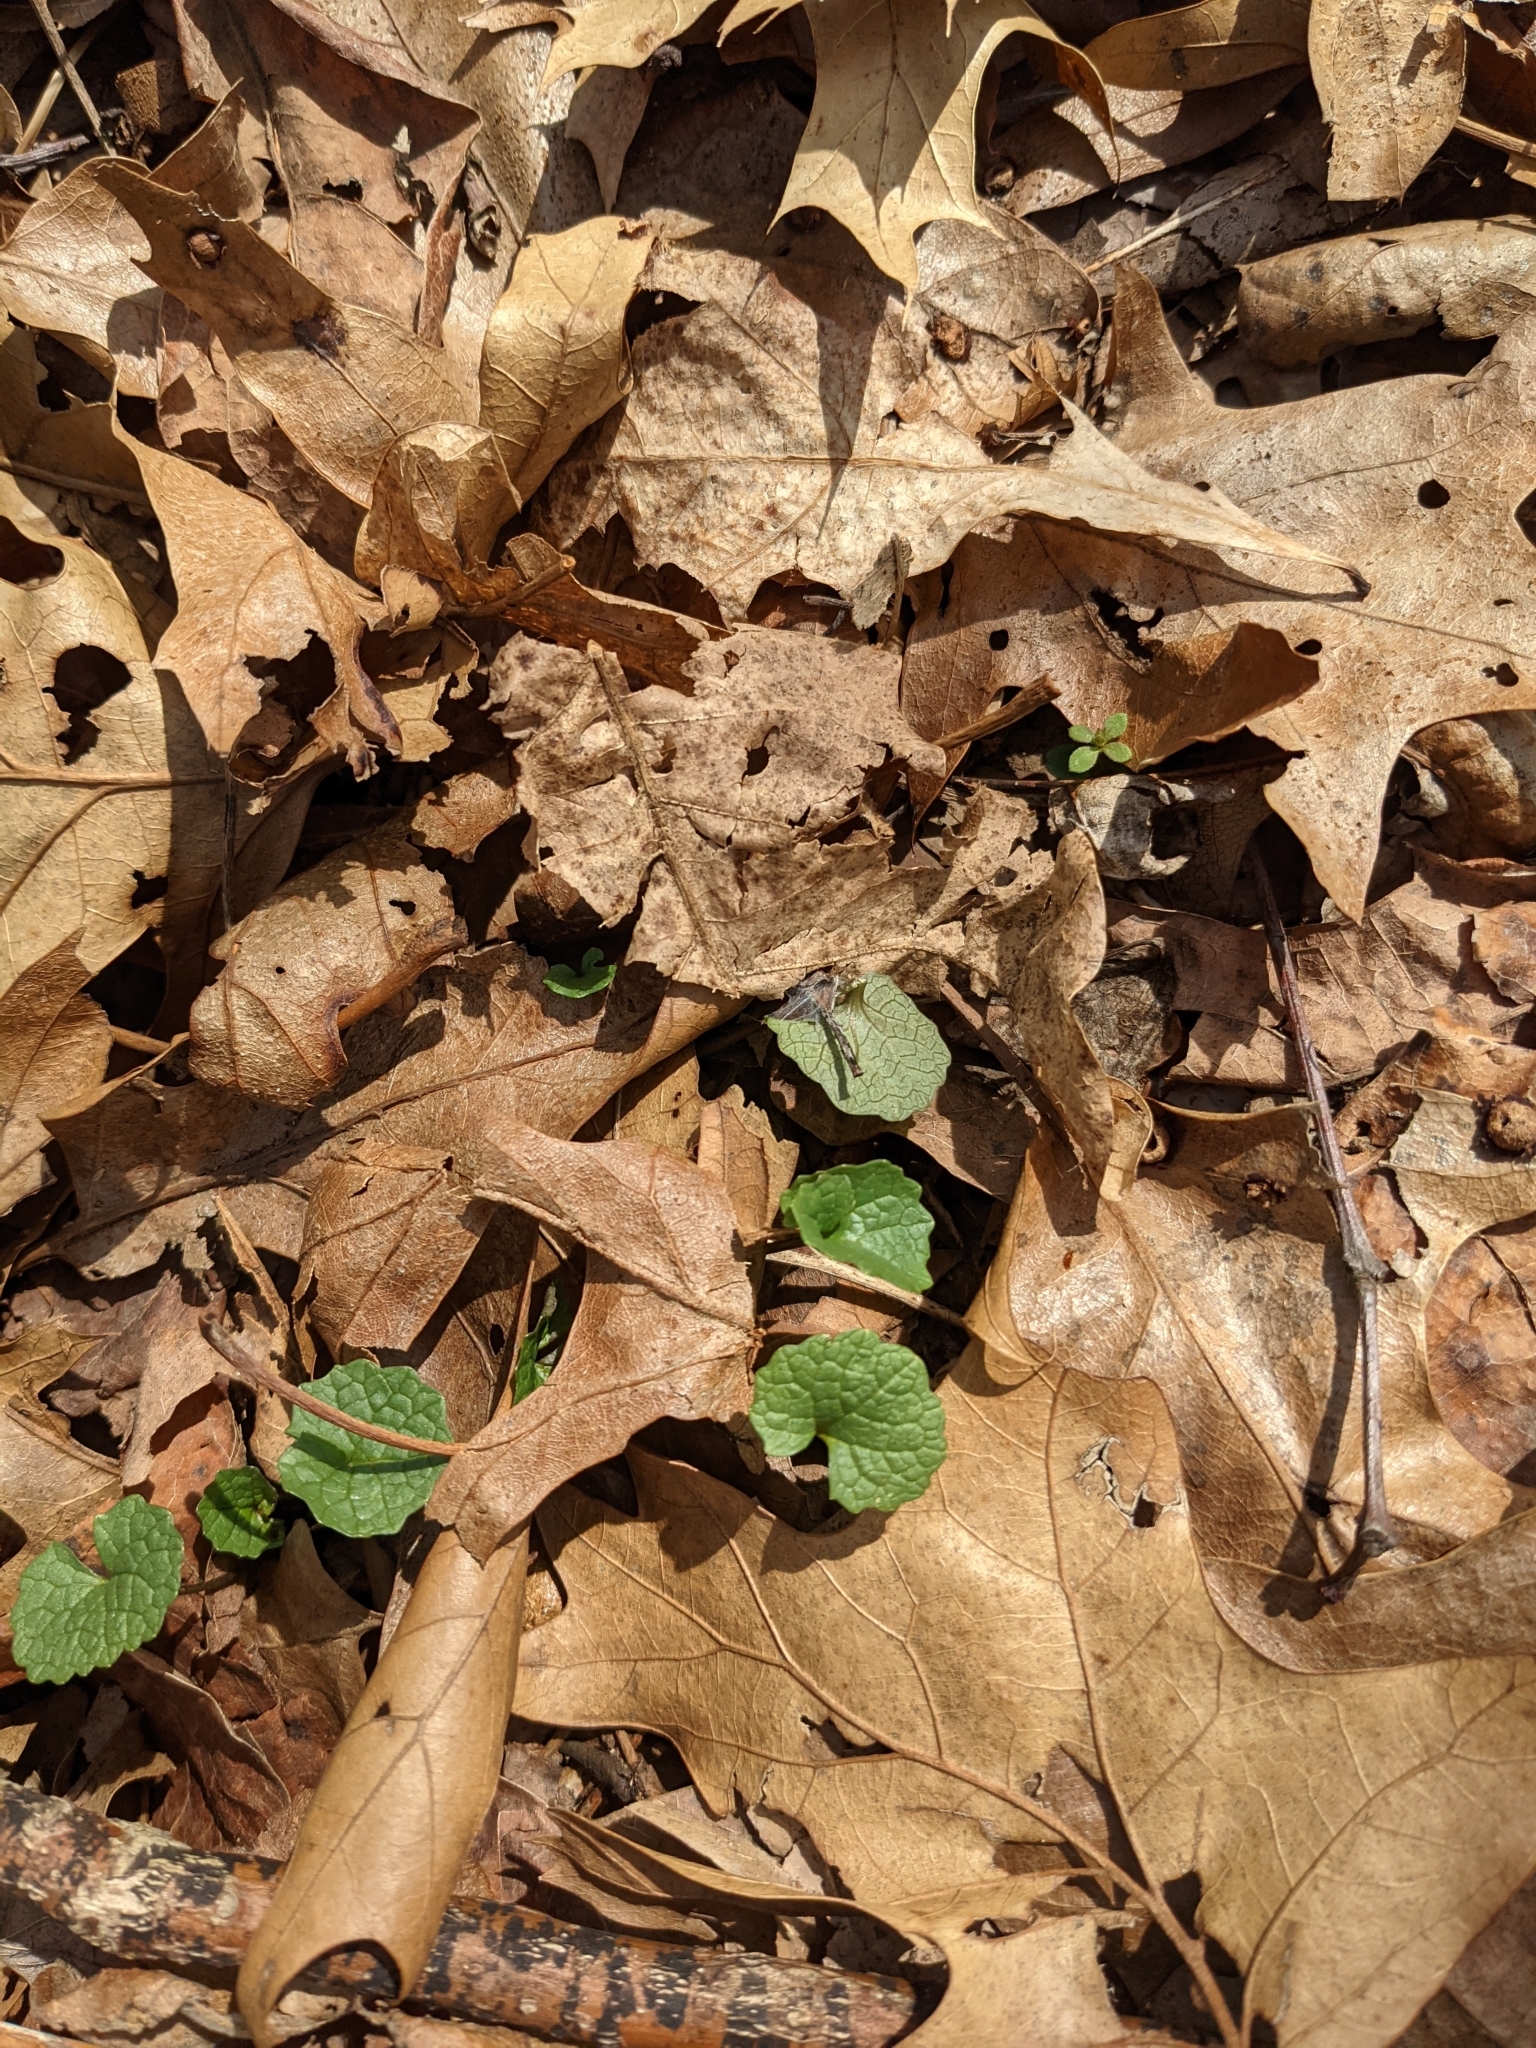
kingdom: Plantae
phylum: Tracheophyta
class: Magnoliopsida
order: Brassicales
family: Brassicaceae
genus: Alliaria
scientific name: Alliaria petiolata
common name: Garlic mustard
